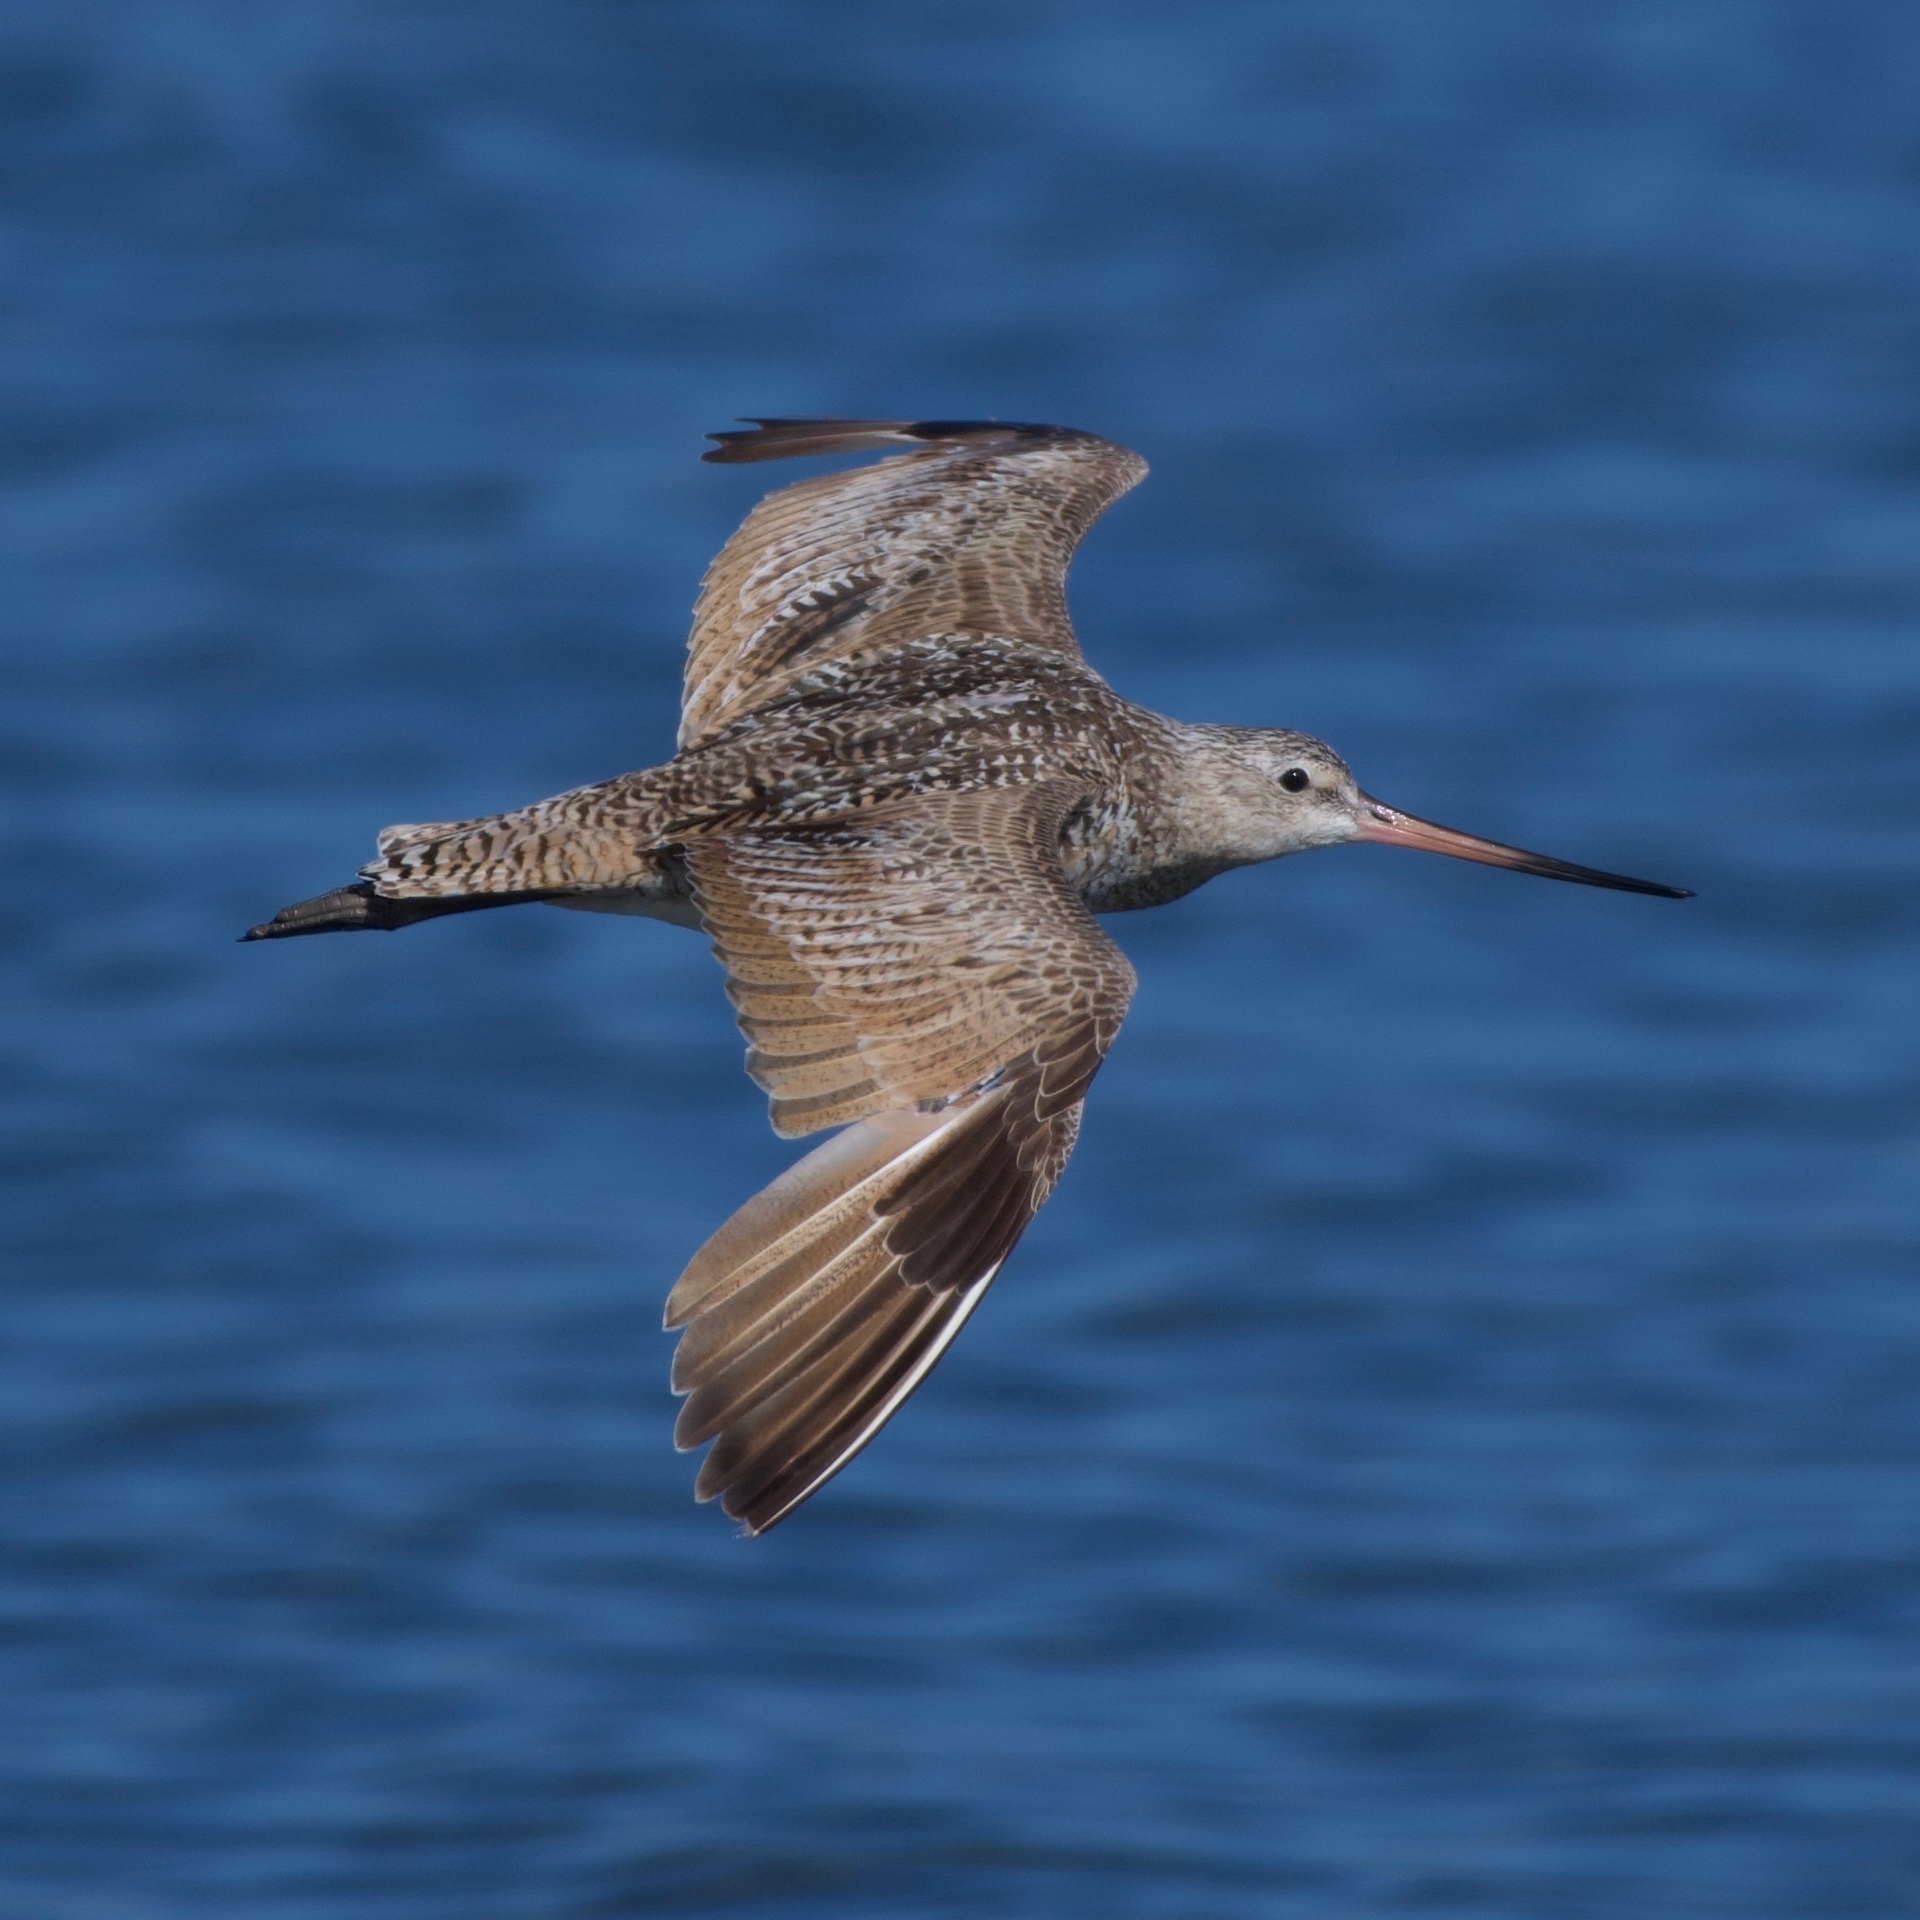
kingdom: Animalia
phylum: Chordata
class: Aves
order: Charadriiformes
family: Scolopacidae
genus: Limosa
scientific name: Limosa fedoa
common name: Marbled godwit
